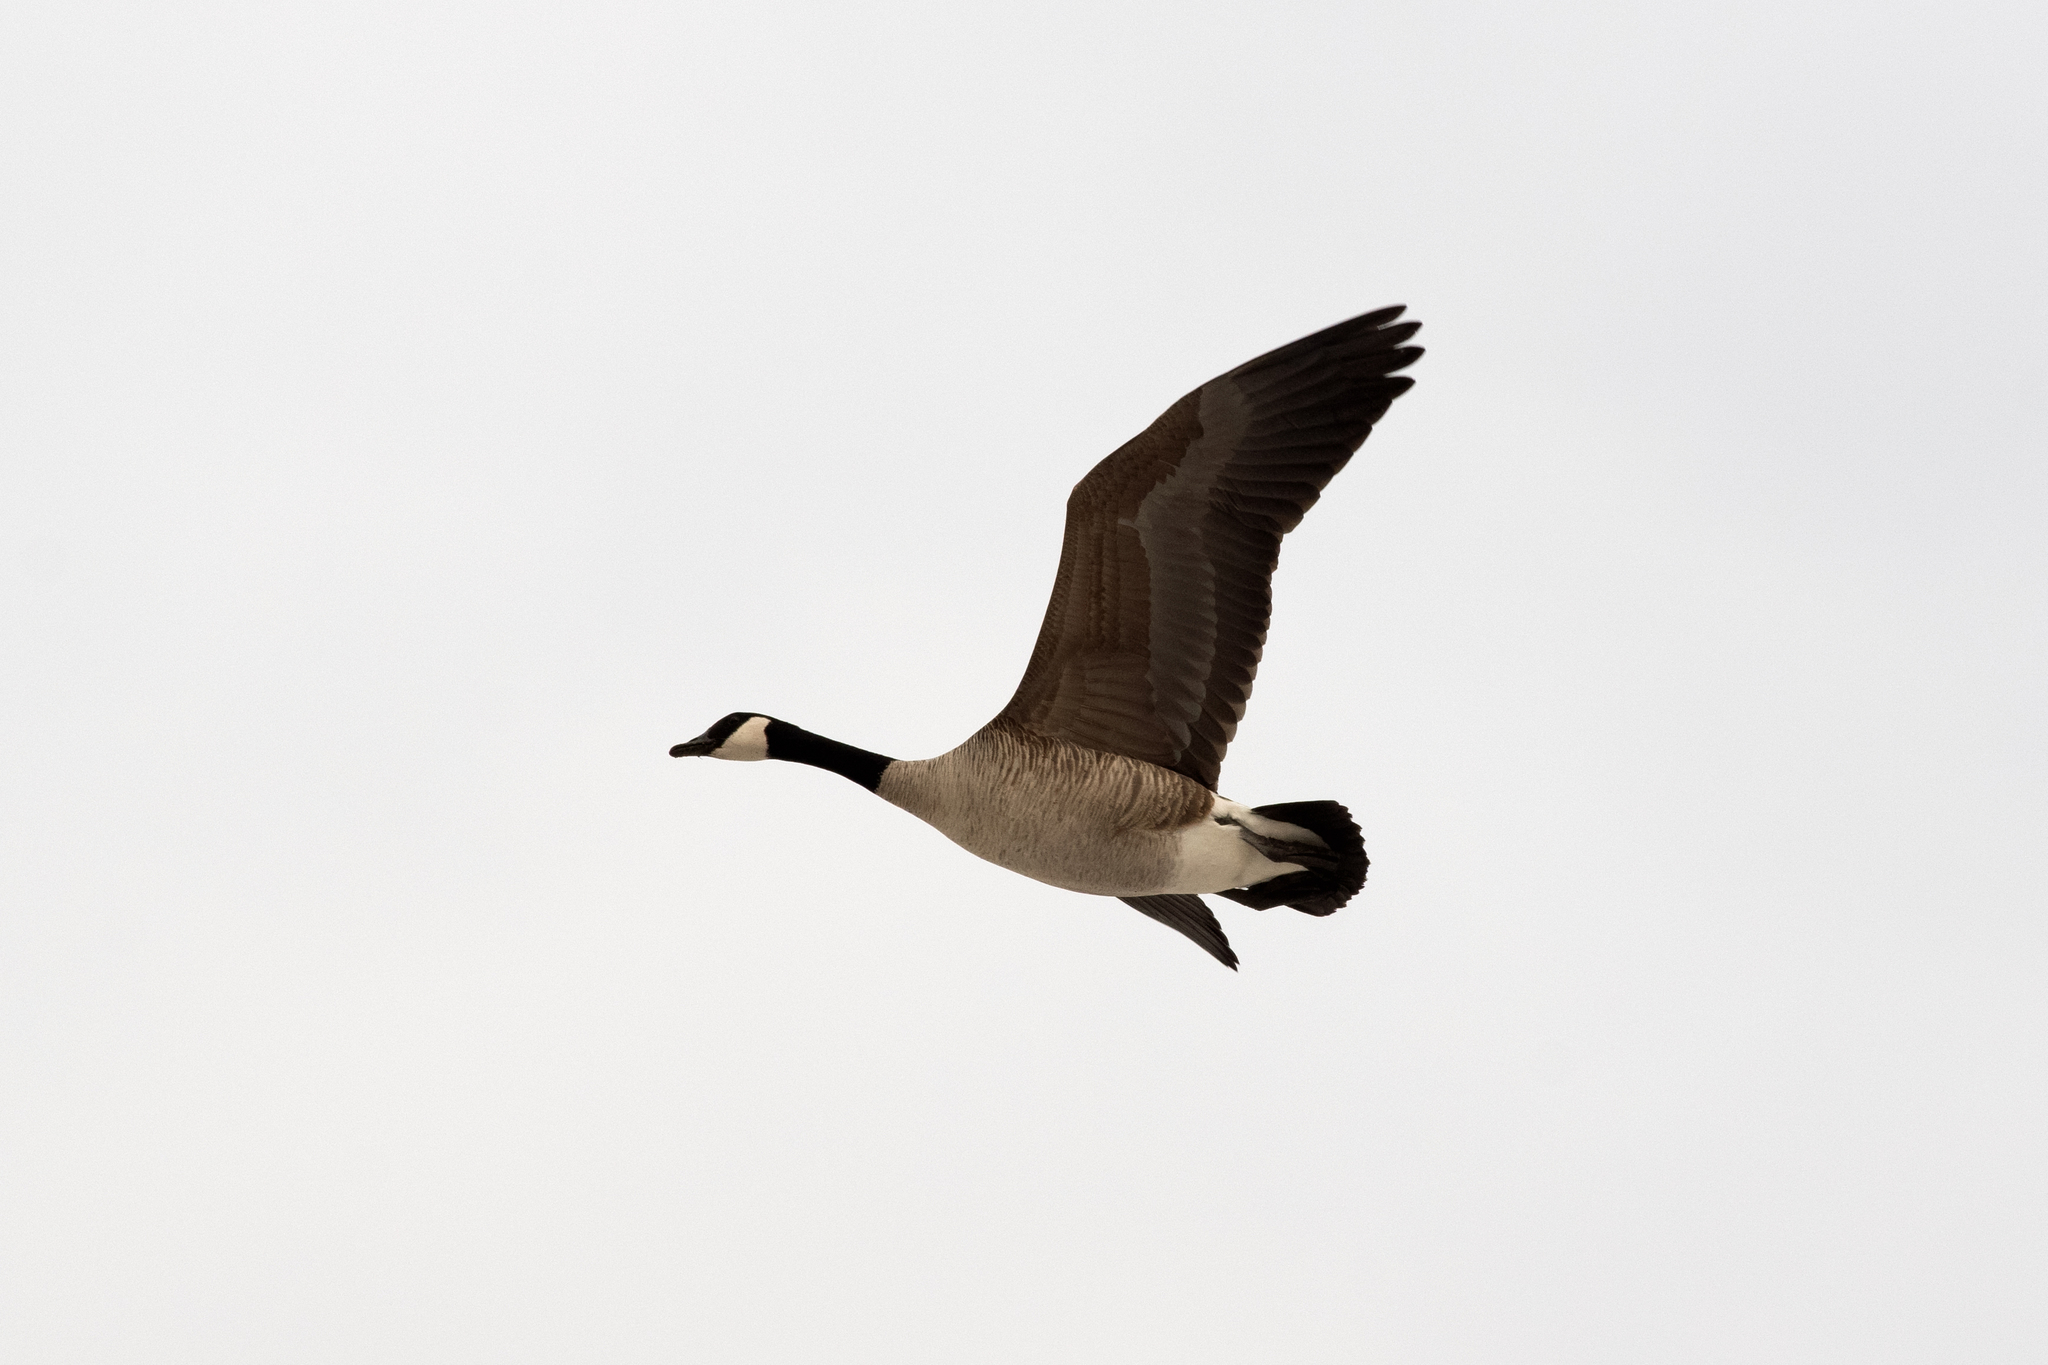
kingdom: Animalia
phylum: Chordata
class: Aves
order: Anseriformes
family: Anatidae
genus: Branta
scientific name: Branta canadensis
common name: Canada goose
